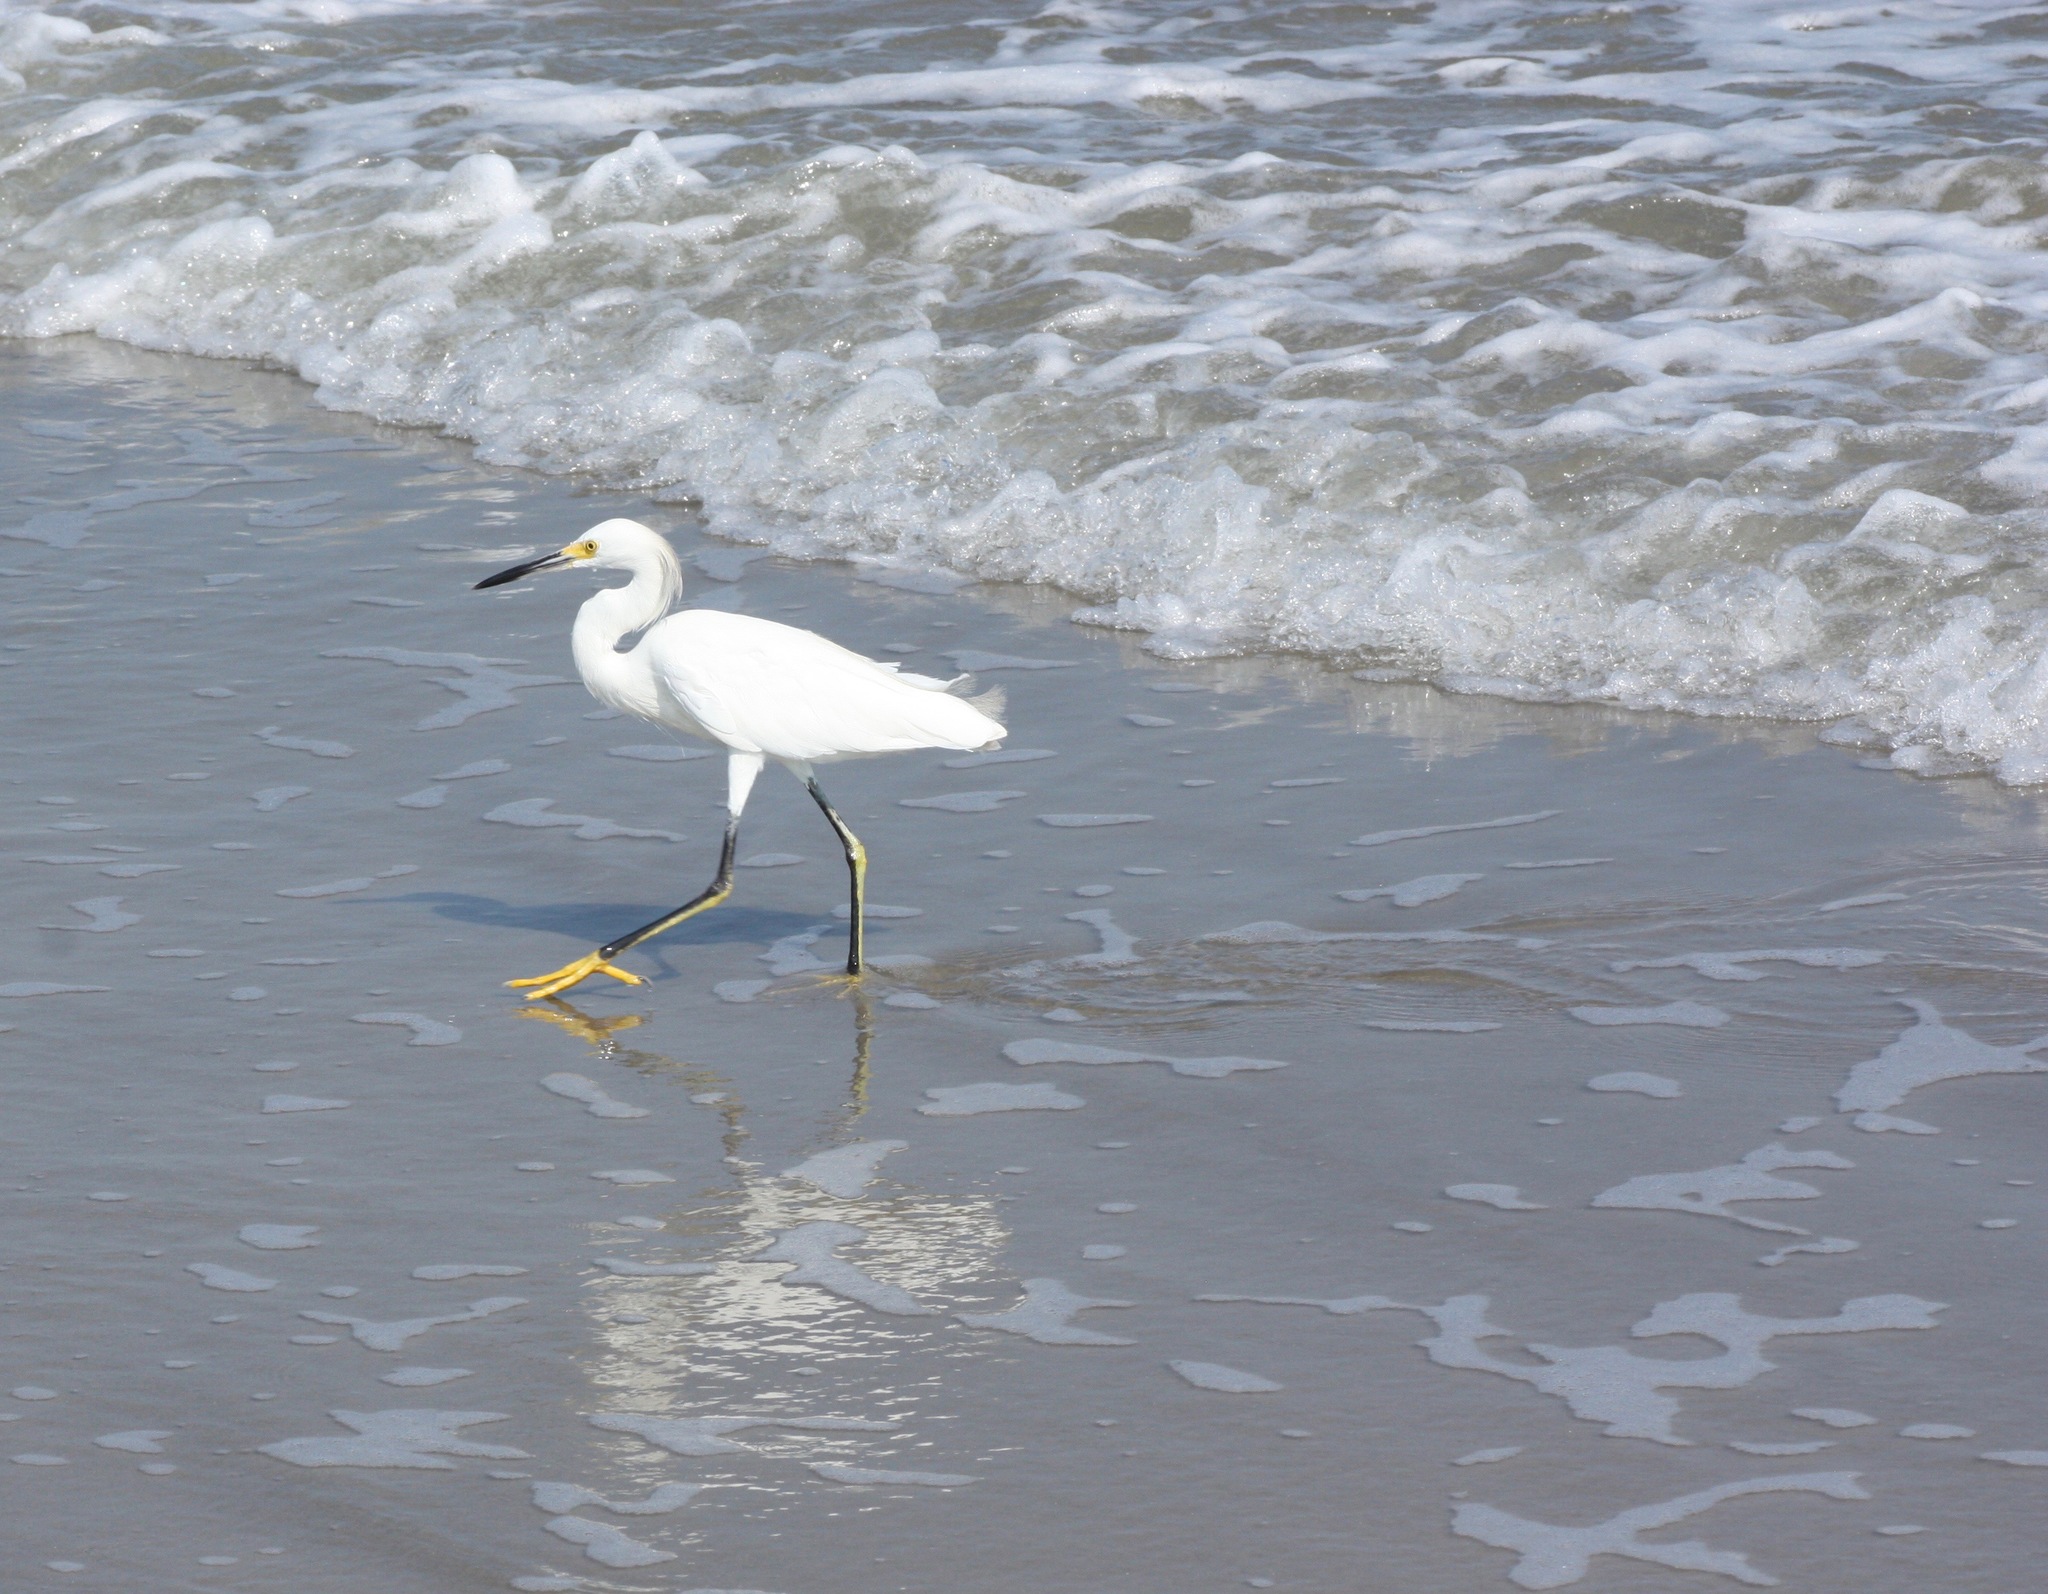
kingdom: Animalia
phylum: Chordata
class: Aves
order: Pelecaniformes
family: Ardeidae
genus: Egretta
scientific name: Egretta thula
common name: Snowy egret
